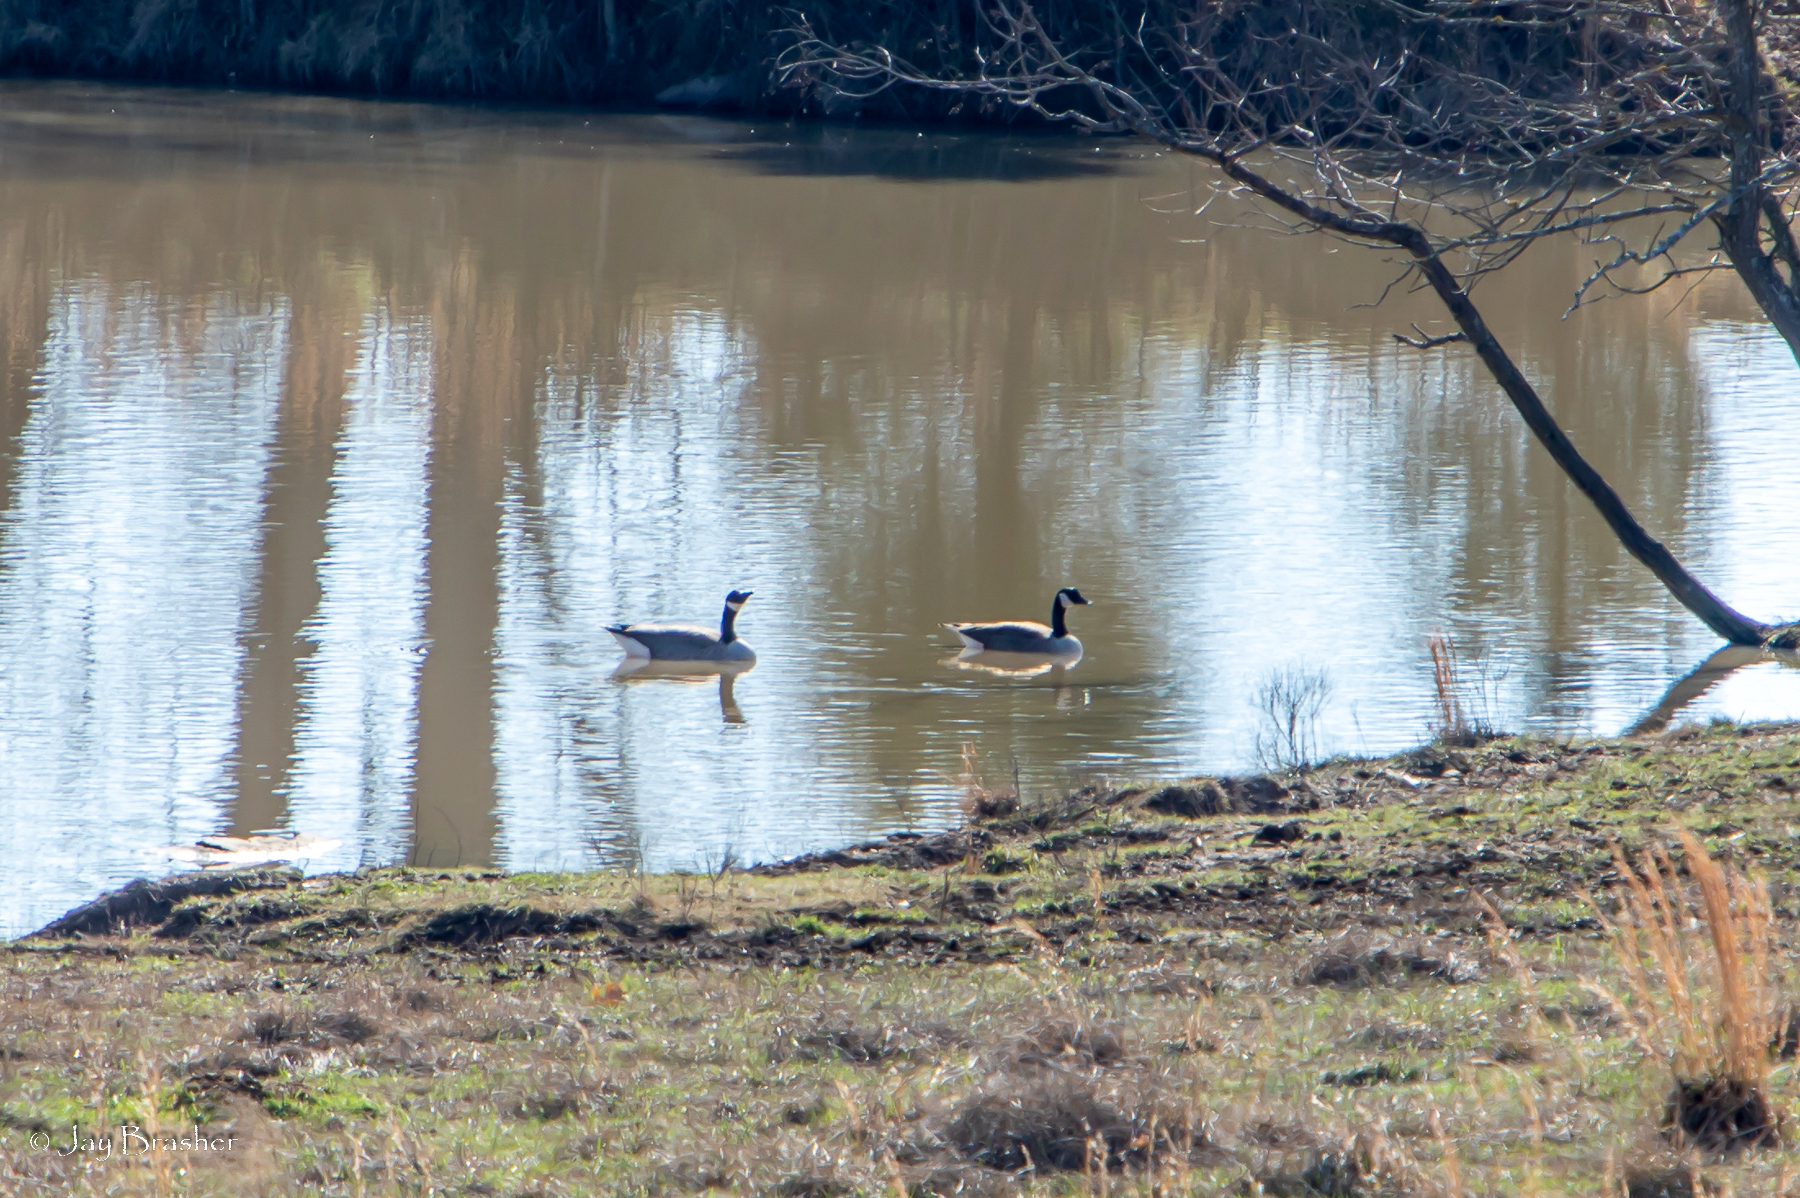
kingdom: Animalia
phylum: Chordata
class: Aves
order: Anseriformes
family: Anatidae
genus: Branta
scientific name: Branta canadensis
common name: Canada goose
